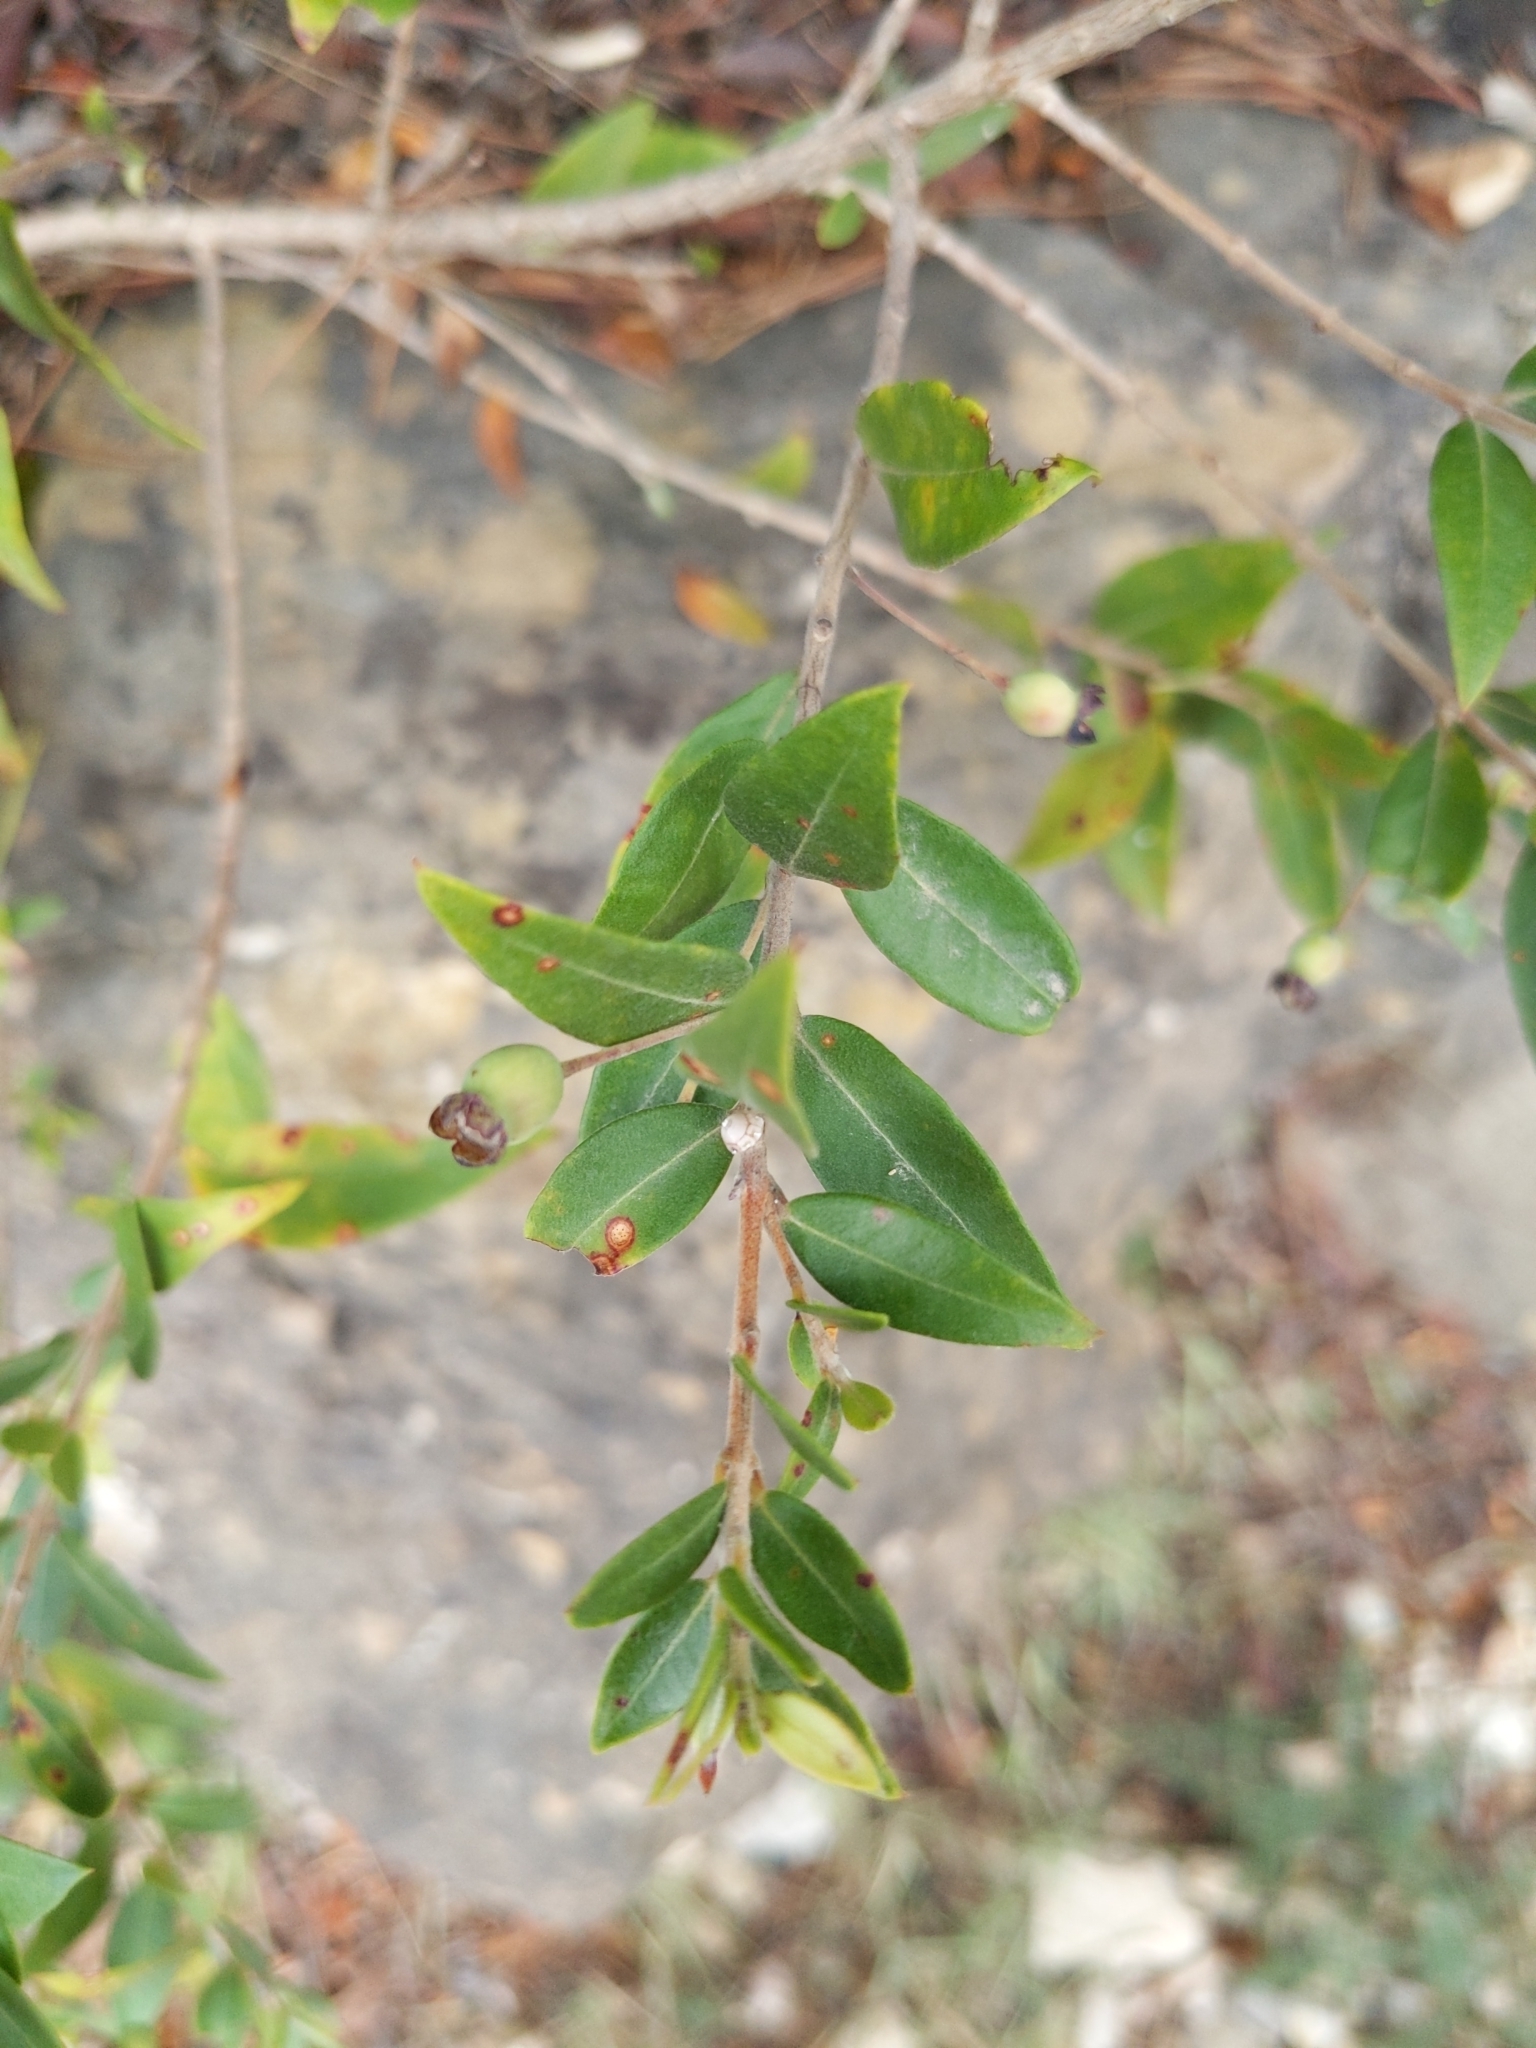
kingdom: Plantae
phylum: Tracheophyta
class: Magnoliopsida
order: Myrtales
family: Myrtaceae
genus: Myrtus
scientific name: Myrtus communis
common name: Myrtle
